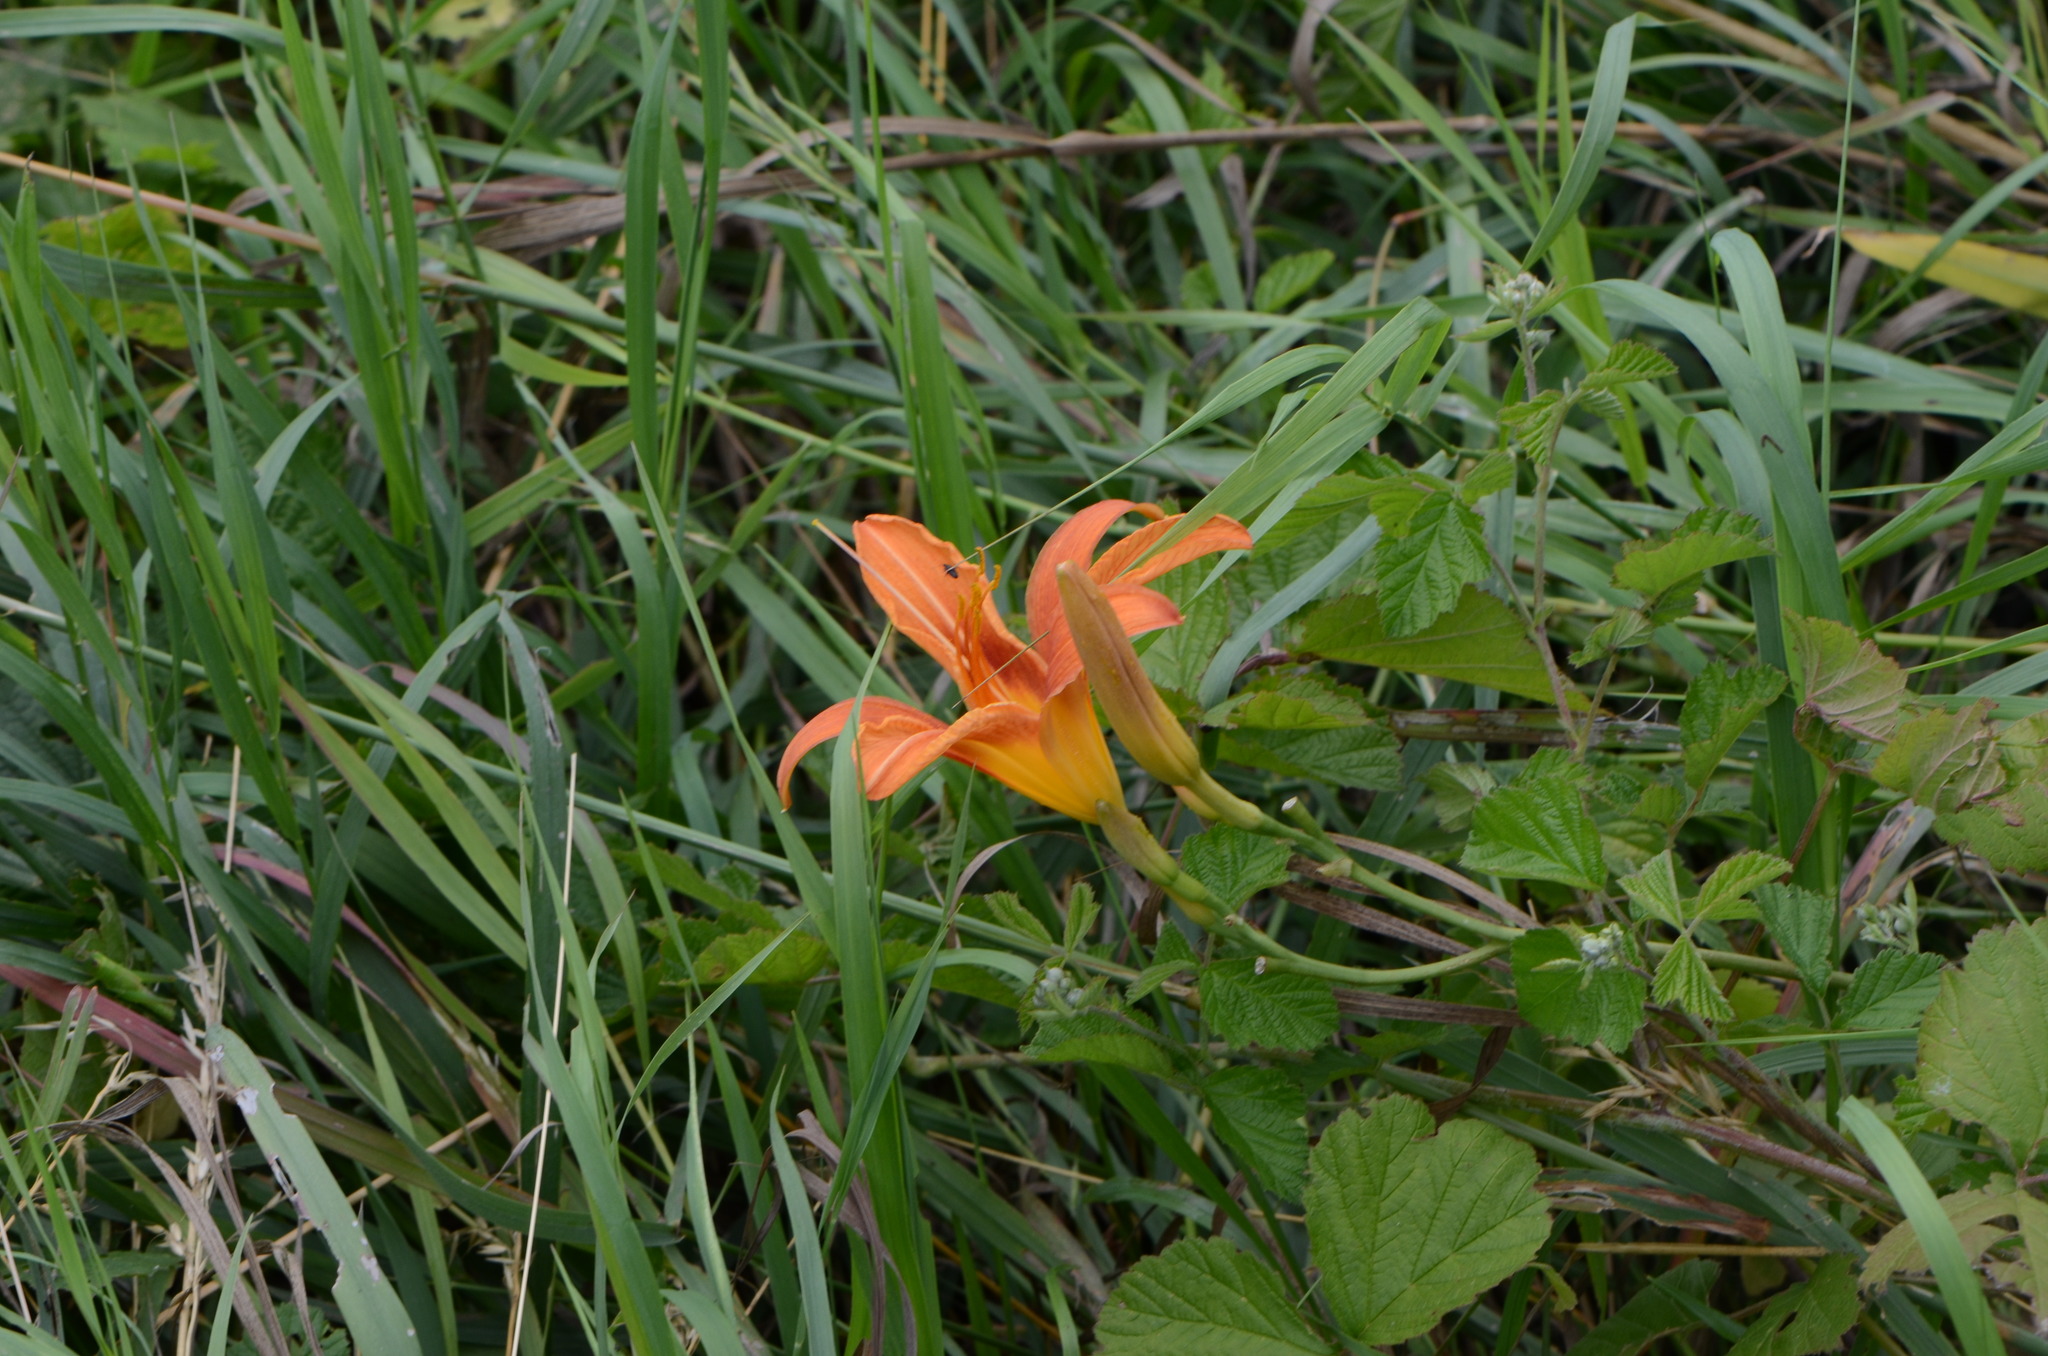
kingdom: Plantae
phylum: Tracheophyta
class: Liliopsida
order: Asparagales
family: Asphodelaceae
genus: Hemerocallis
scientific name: Hemerocallis fulva
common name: Orange day-lily
